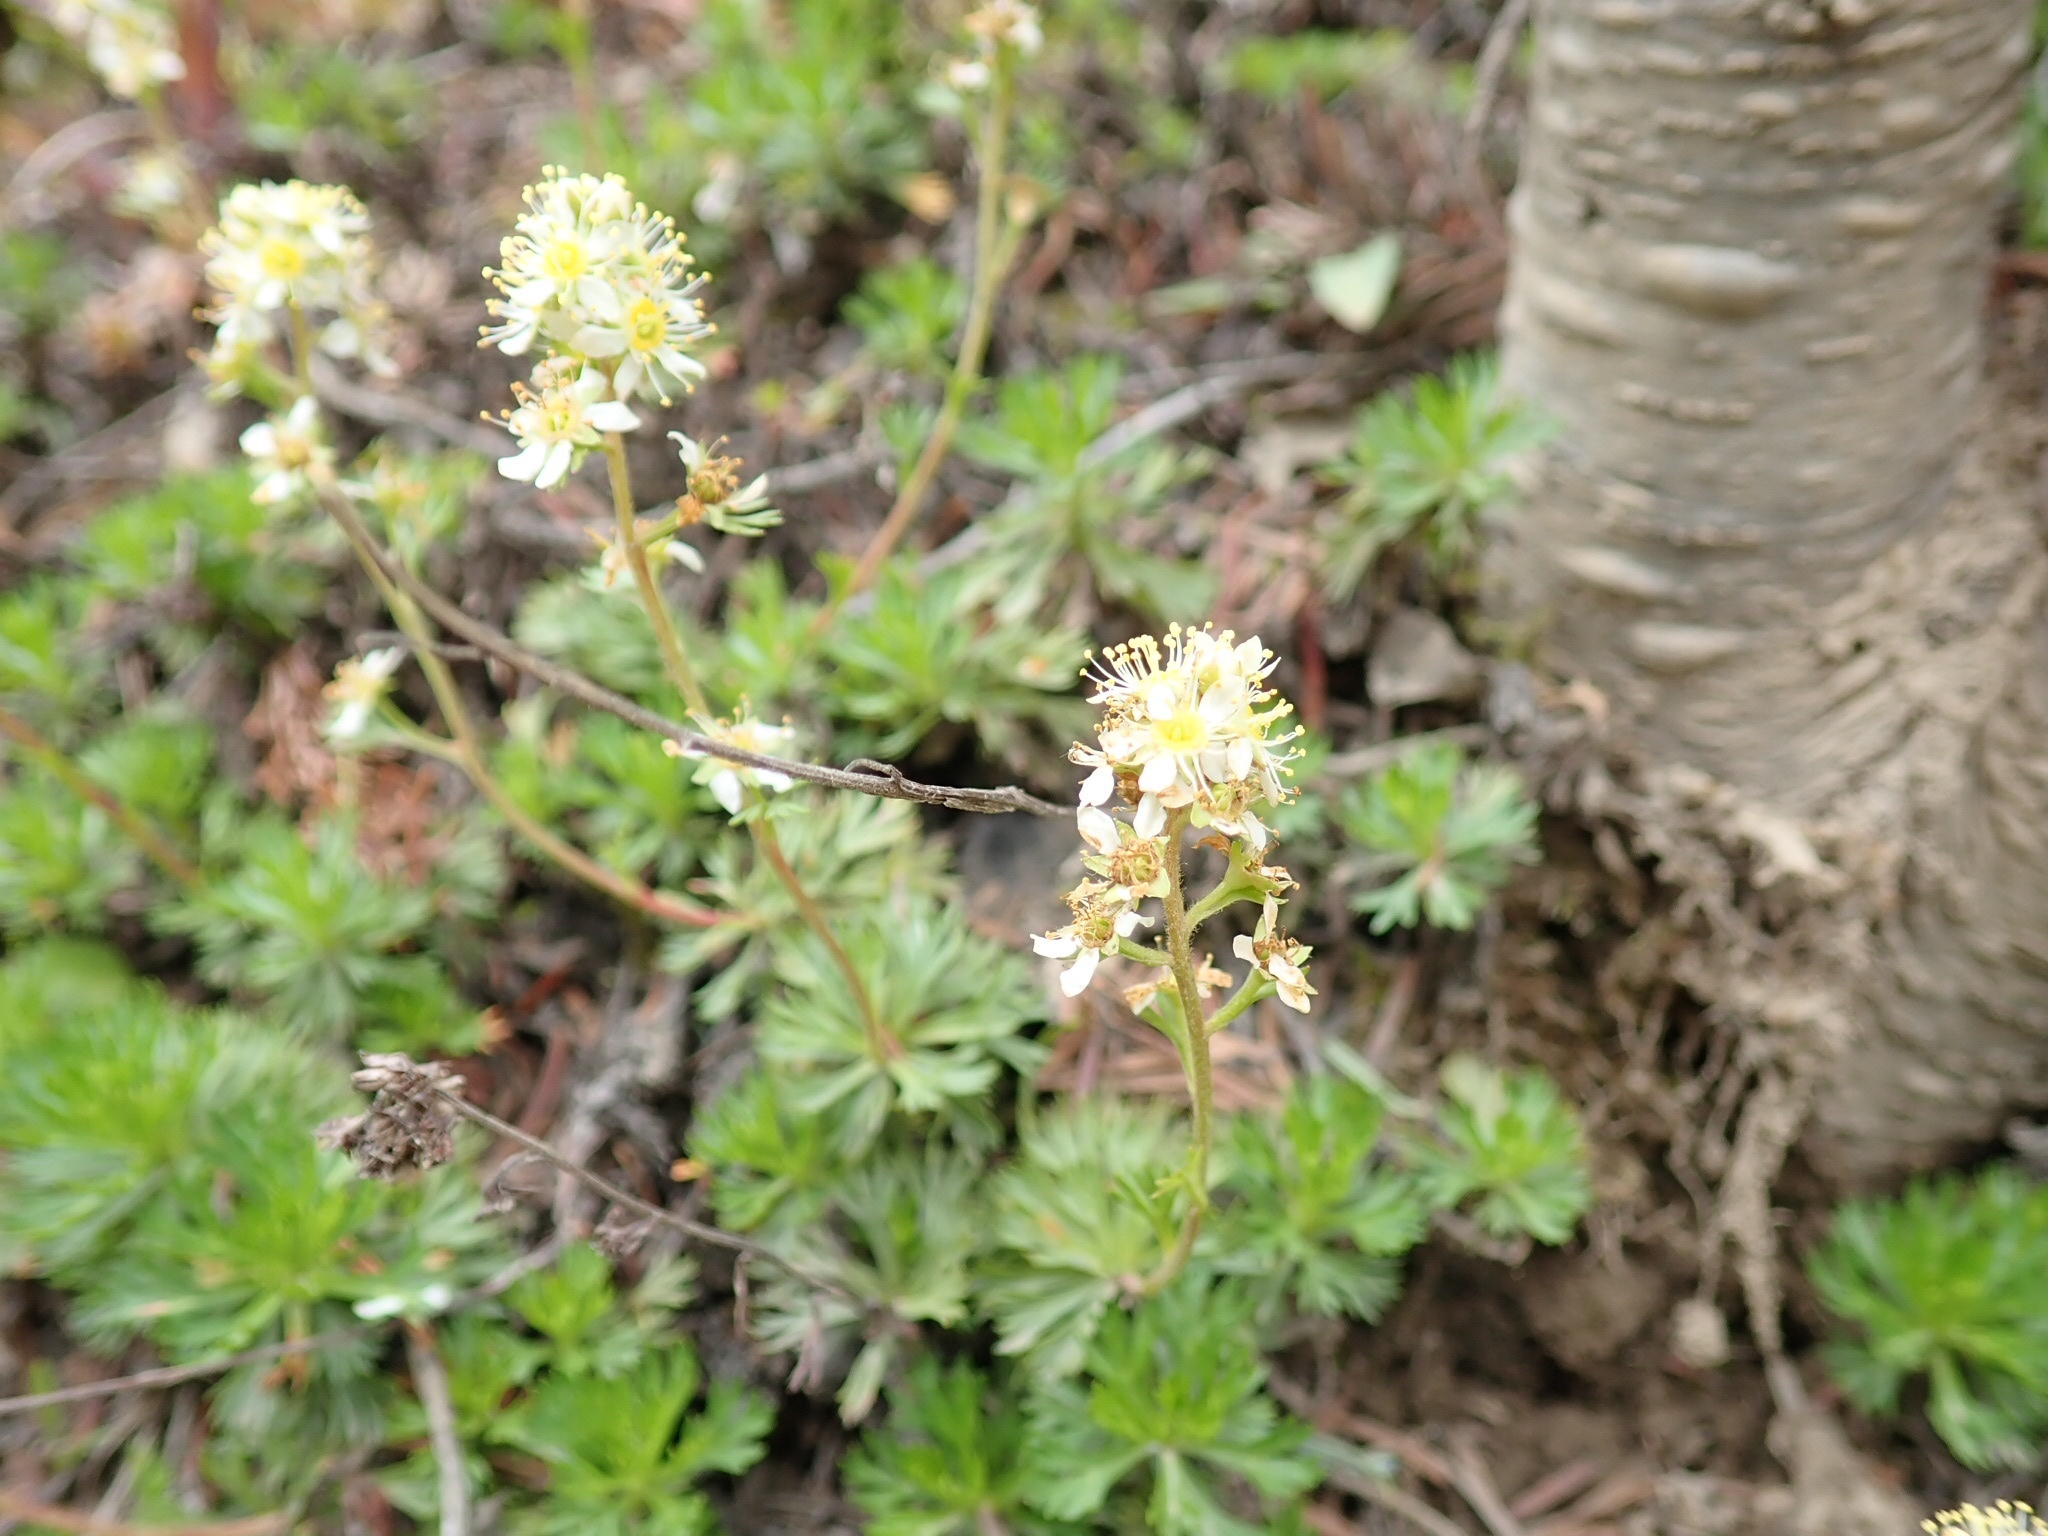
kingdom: Plantae
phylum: Tracheophyta
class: Magnoliopsida
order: Rosales
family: Rosaceae
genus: Luetkea
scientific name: Luetkea pectinata
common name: Partridgefoot
